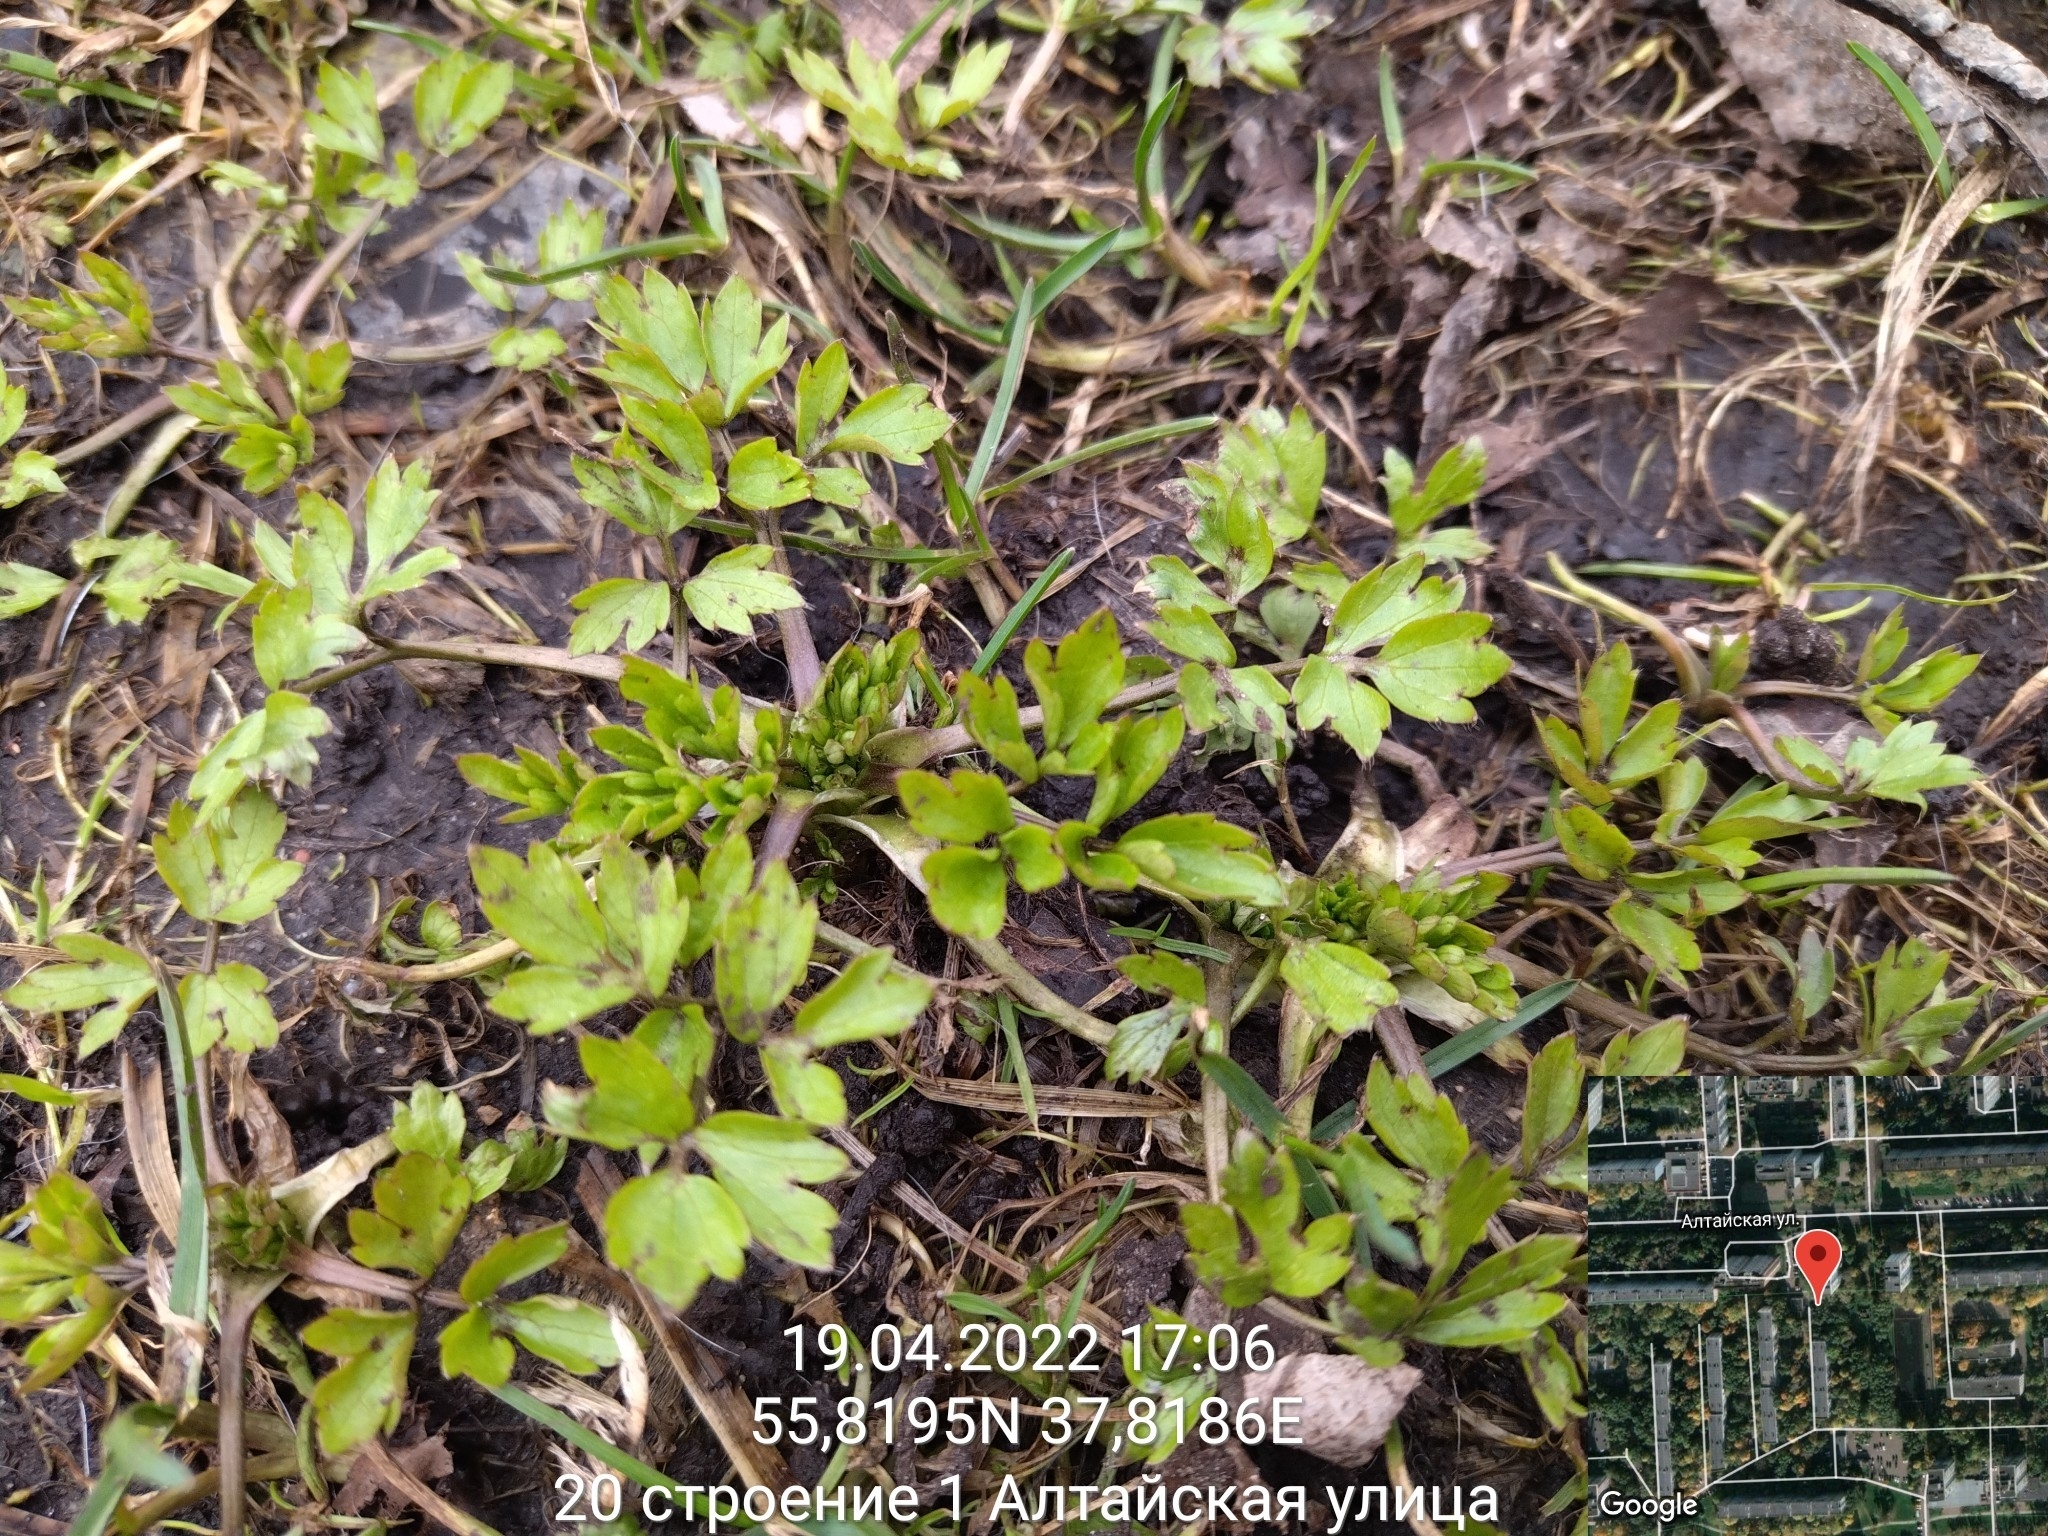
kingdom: Plantae
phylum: Tracheophyta
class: Magnoliopsida
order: Ranunculales
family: Ranunculaceae
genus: Ranunculus
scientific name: Ranunculus repens
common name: Creeping buttercup
